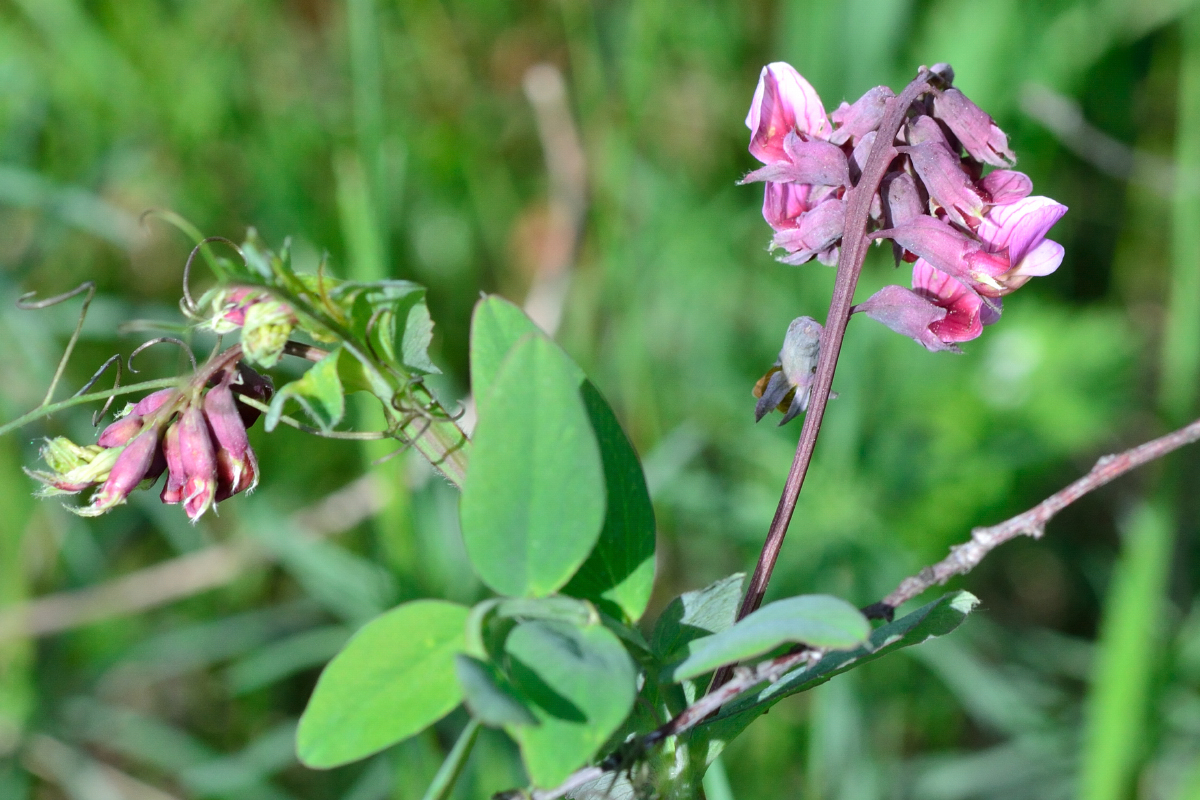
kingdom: Plantae
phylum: Tracheophyta
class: Magnoliopsida
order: Fabales
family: Fabaceae
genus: Lathyrus
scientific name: Lathyrus pisiformis
